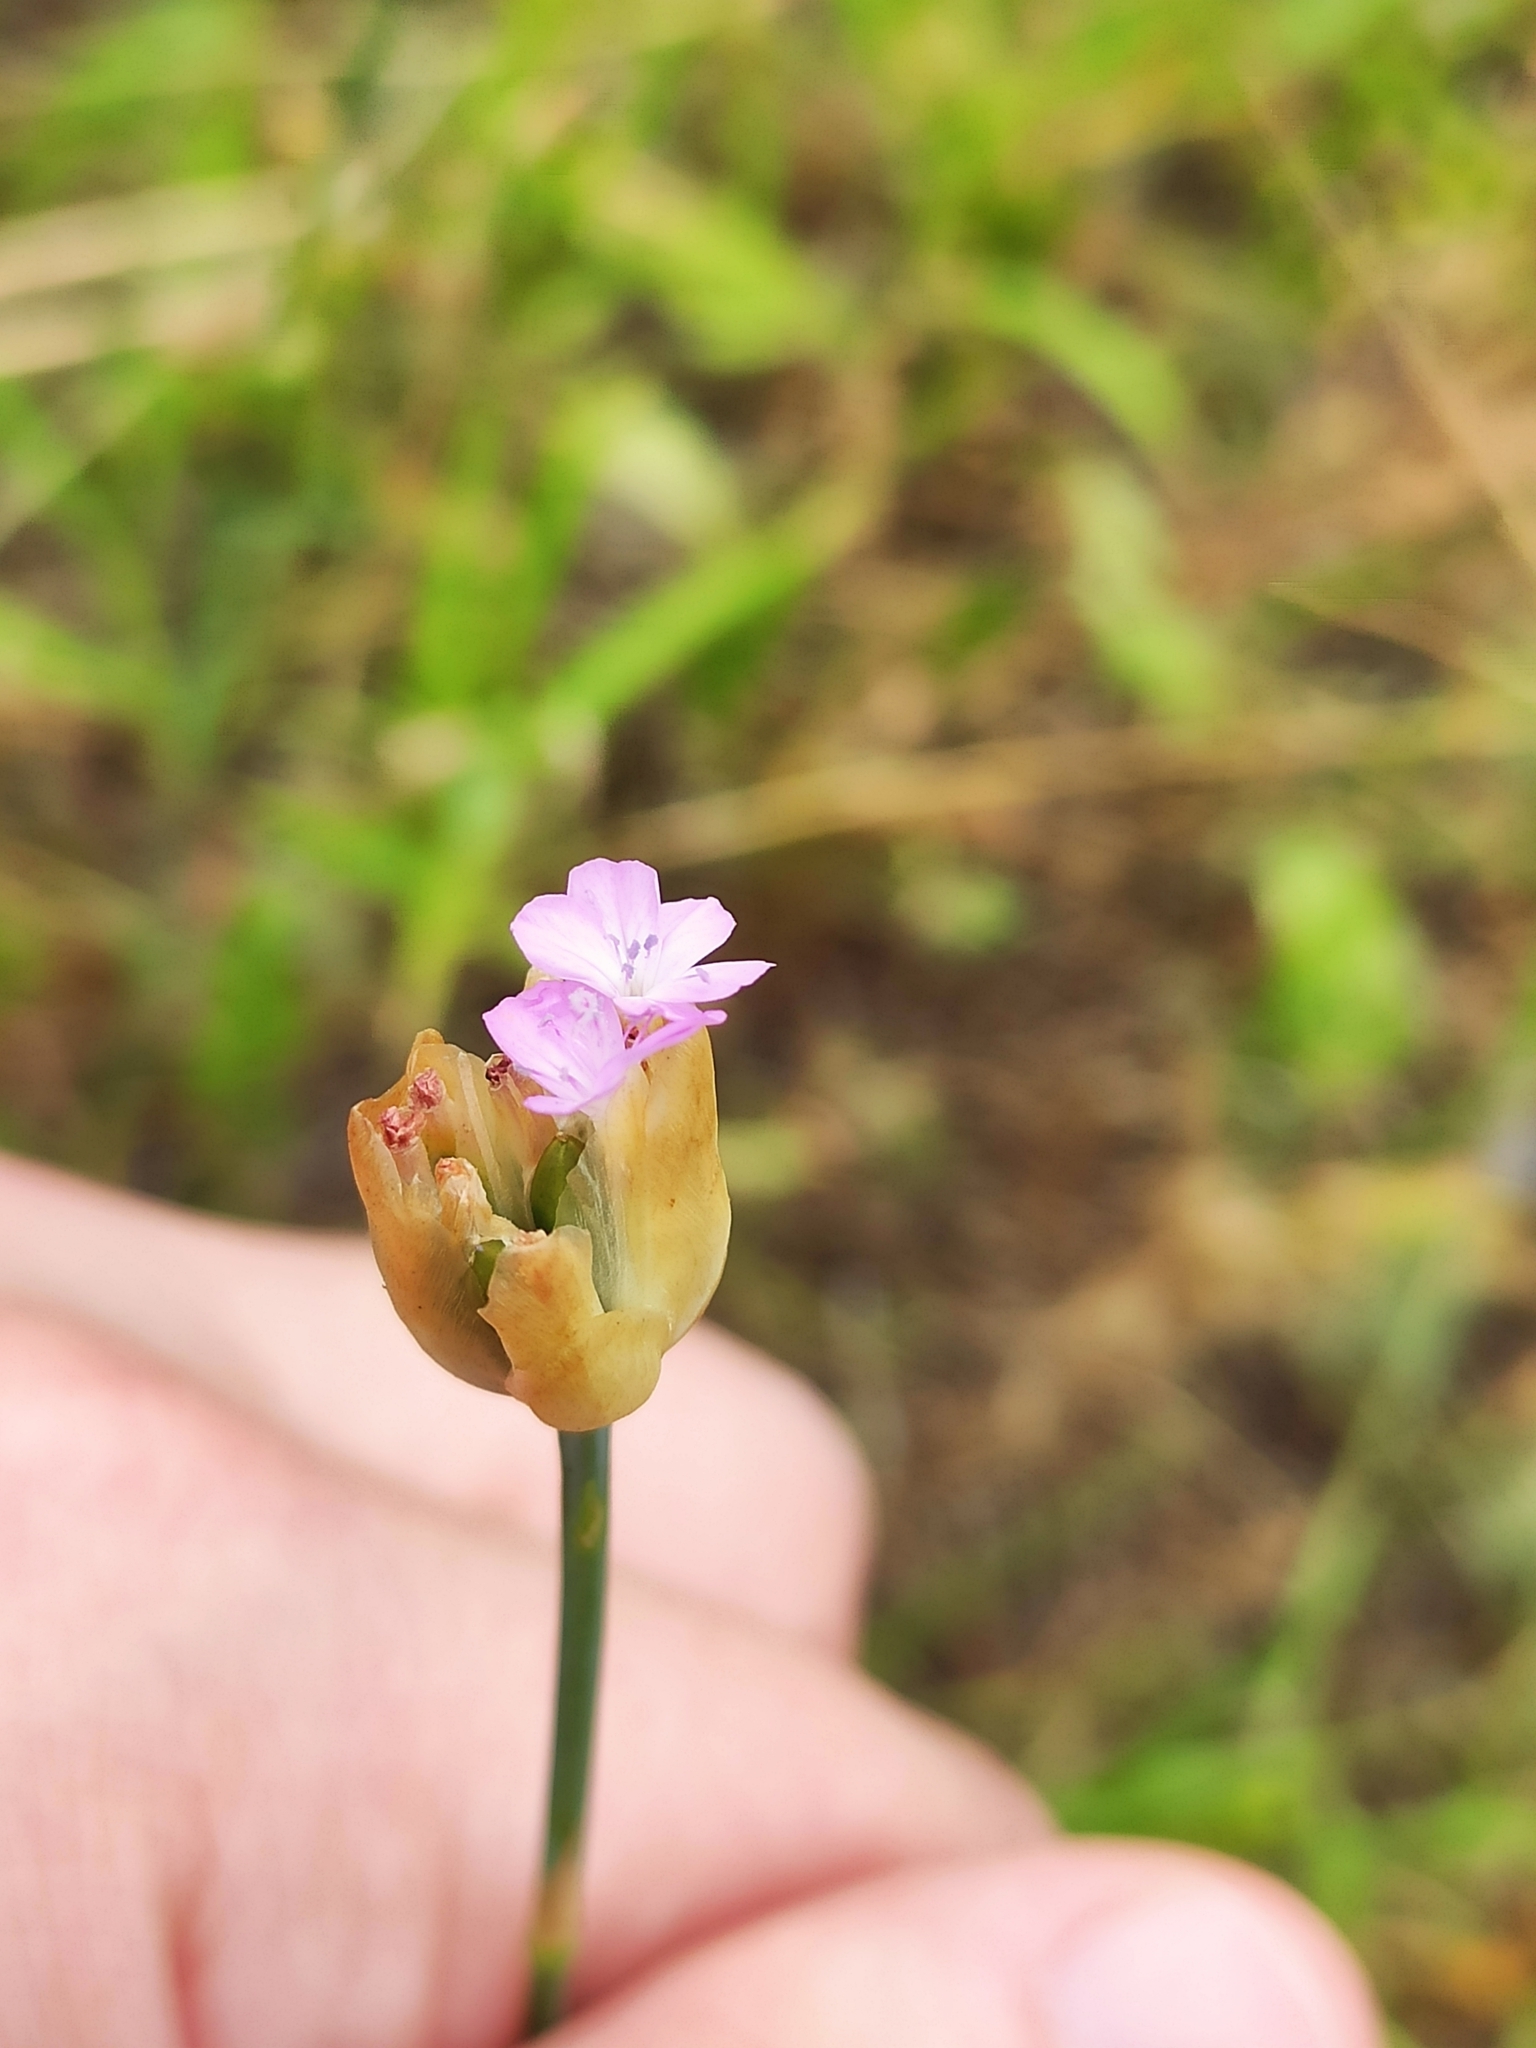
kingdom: Plantae
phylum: Tracheophyta
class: Magnoliopsida
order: Caryophyllales
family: Caryophyllaceae
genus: Petrorhagia
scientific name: Petrorhagia prolifera
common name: Proliferous pink
